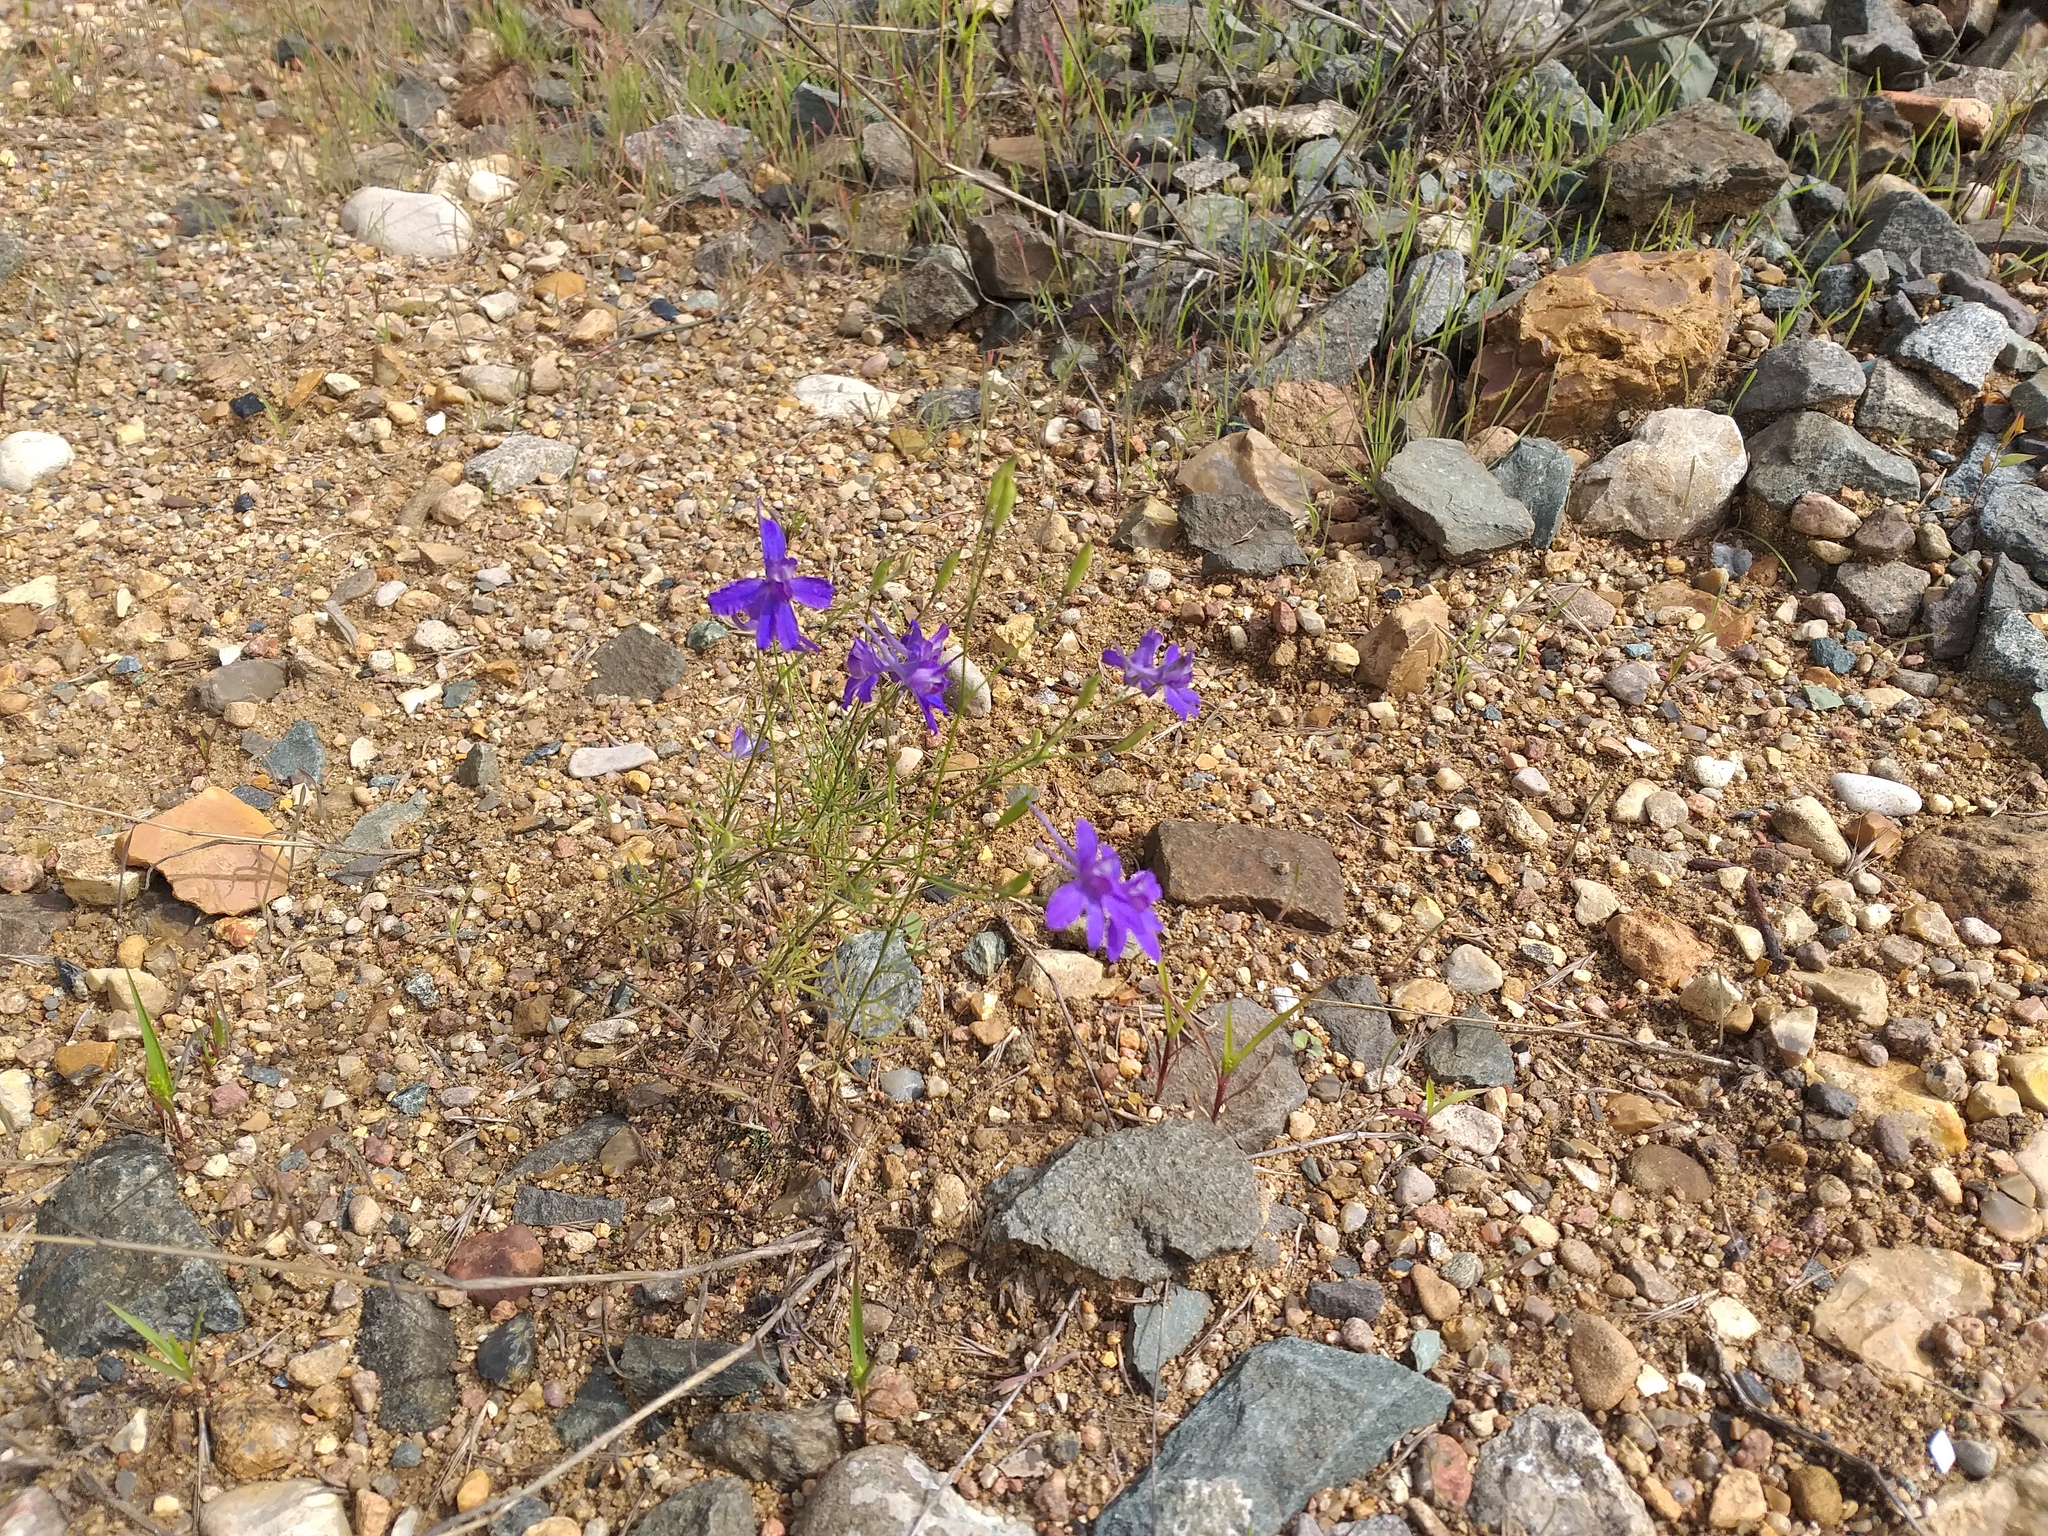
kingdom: Plantae
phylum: Tracheophyta
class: Magnoliopsida
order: Ranunculales
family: Ranunculaceae
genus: Delphinium
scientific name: Delphinium consolida
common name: Branching larkspur
